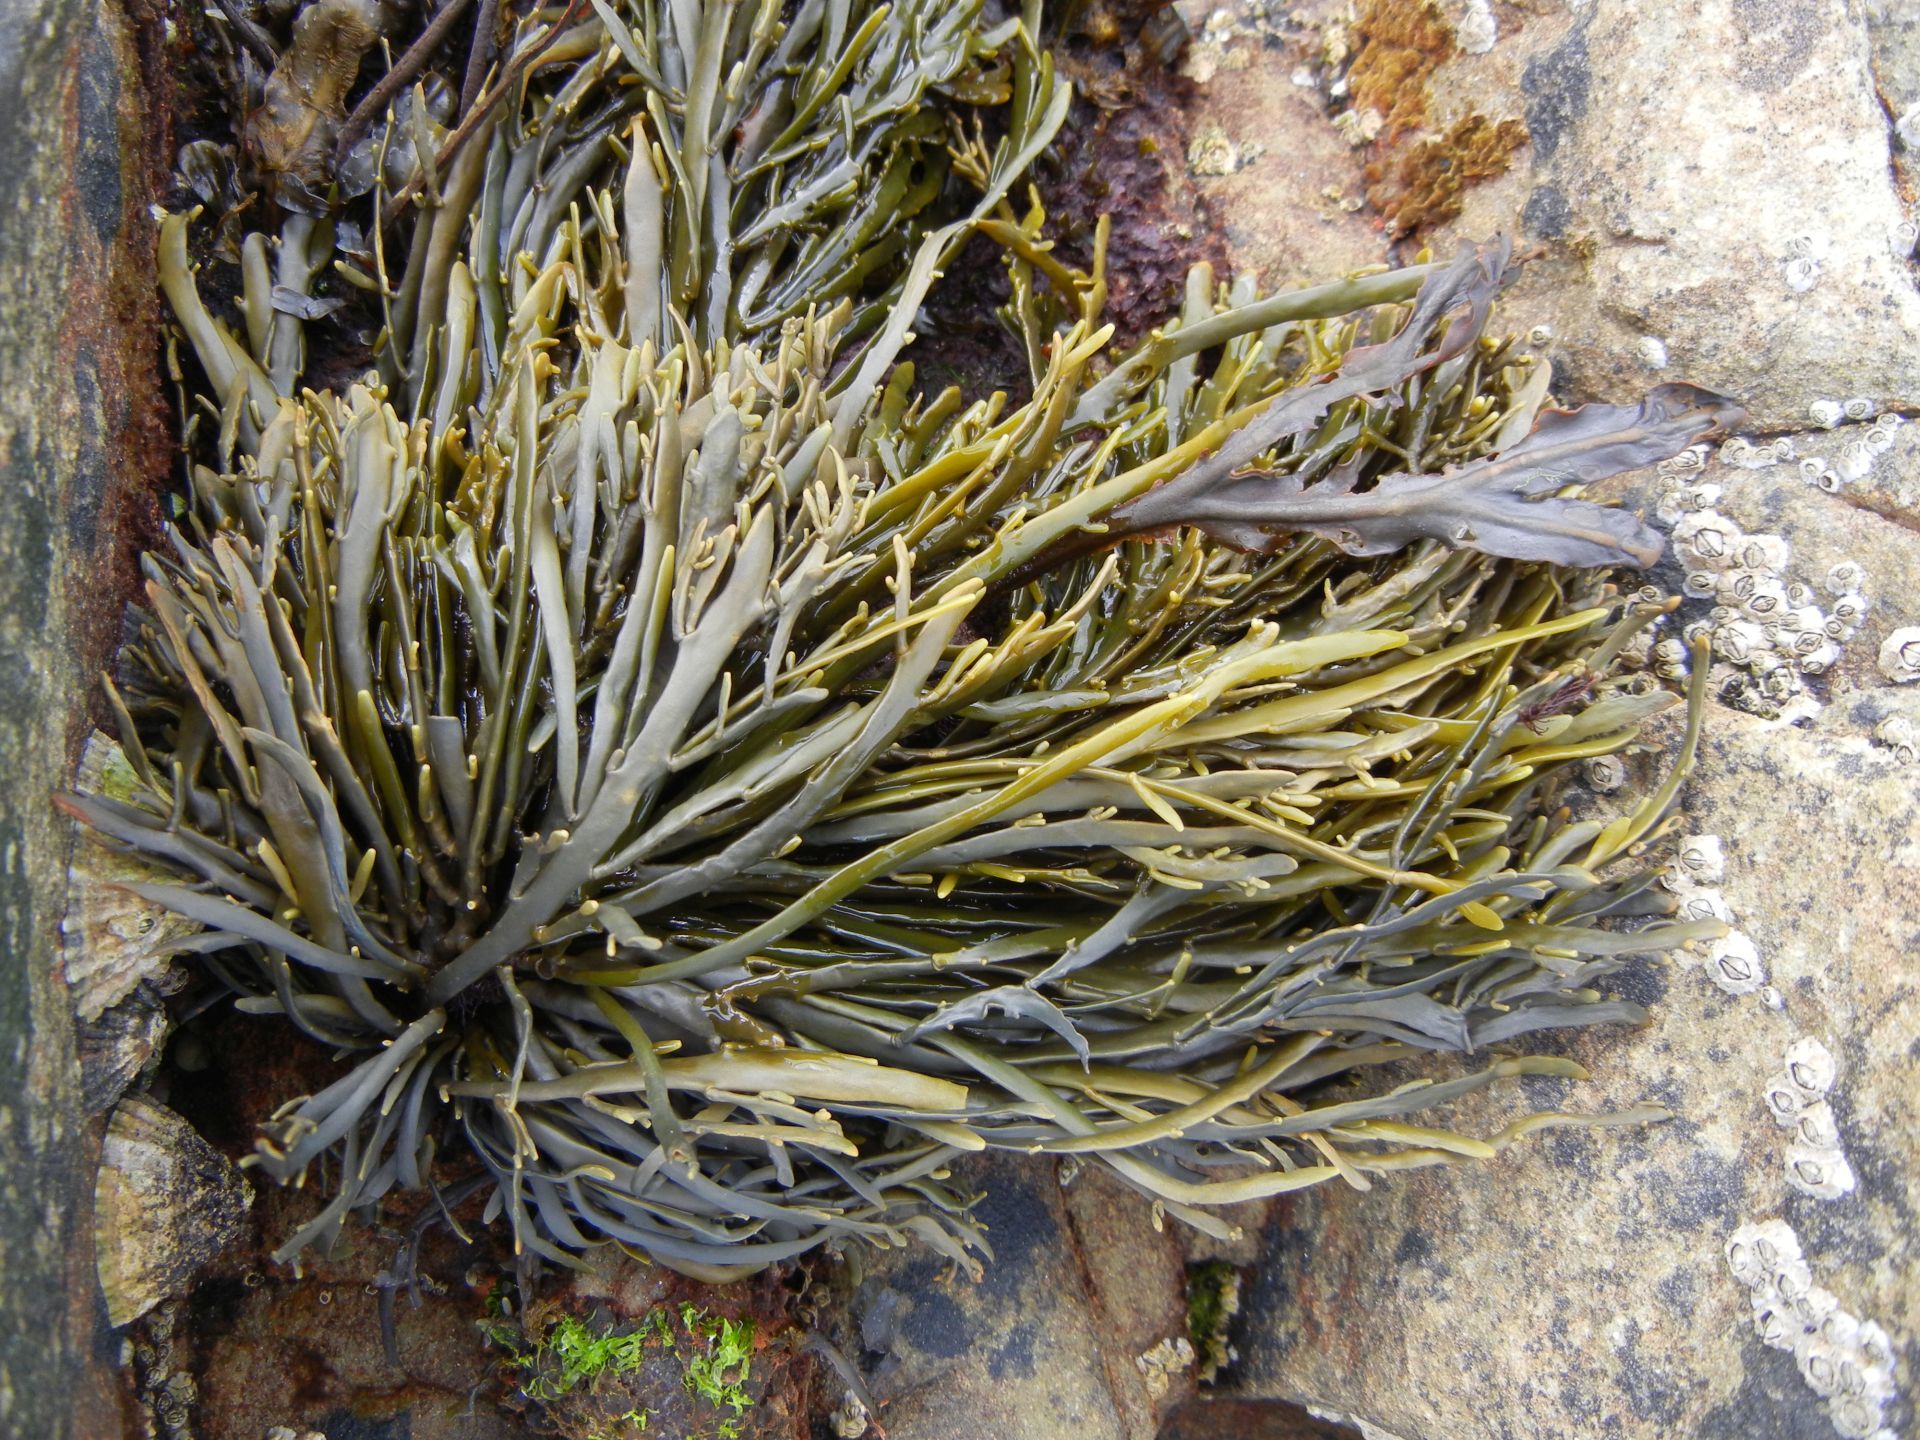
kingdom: Chromista
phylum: Ochrophyta
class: Phaeophyceae
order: Fucales
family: Fucaceae
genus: Ascophyllum
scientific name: Ascophyllum nodosum
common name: Knotted wrack
